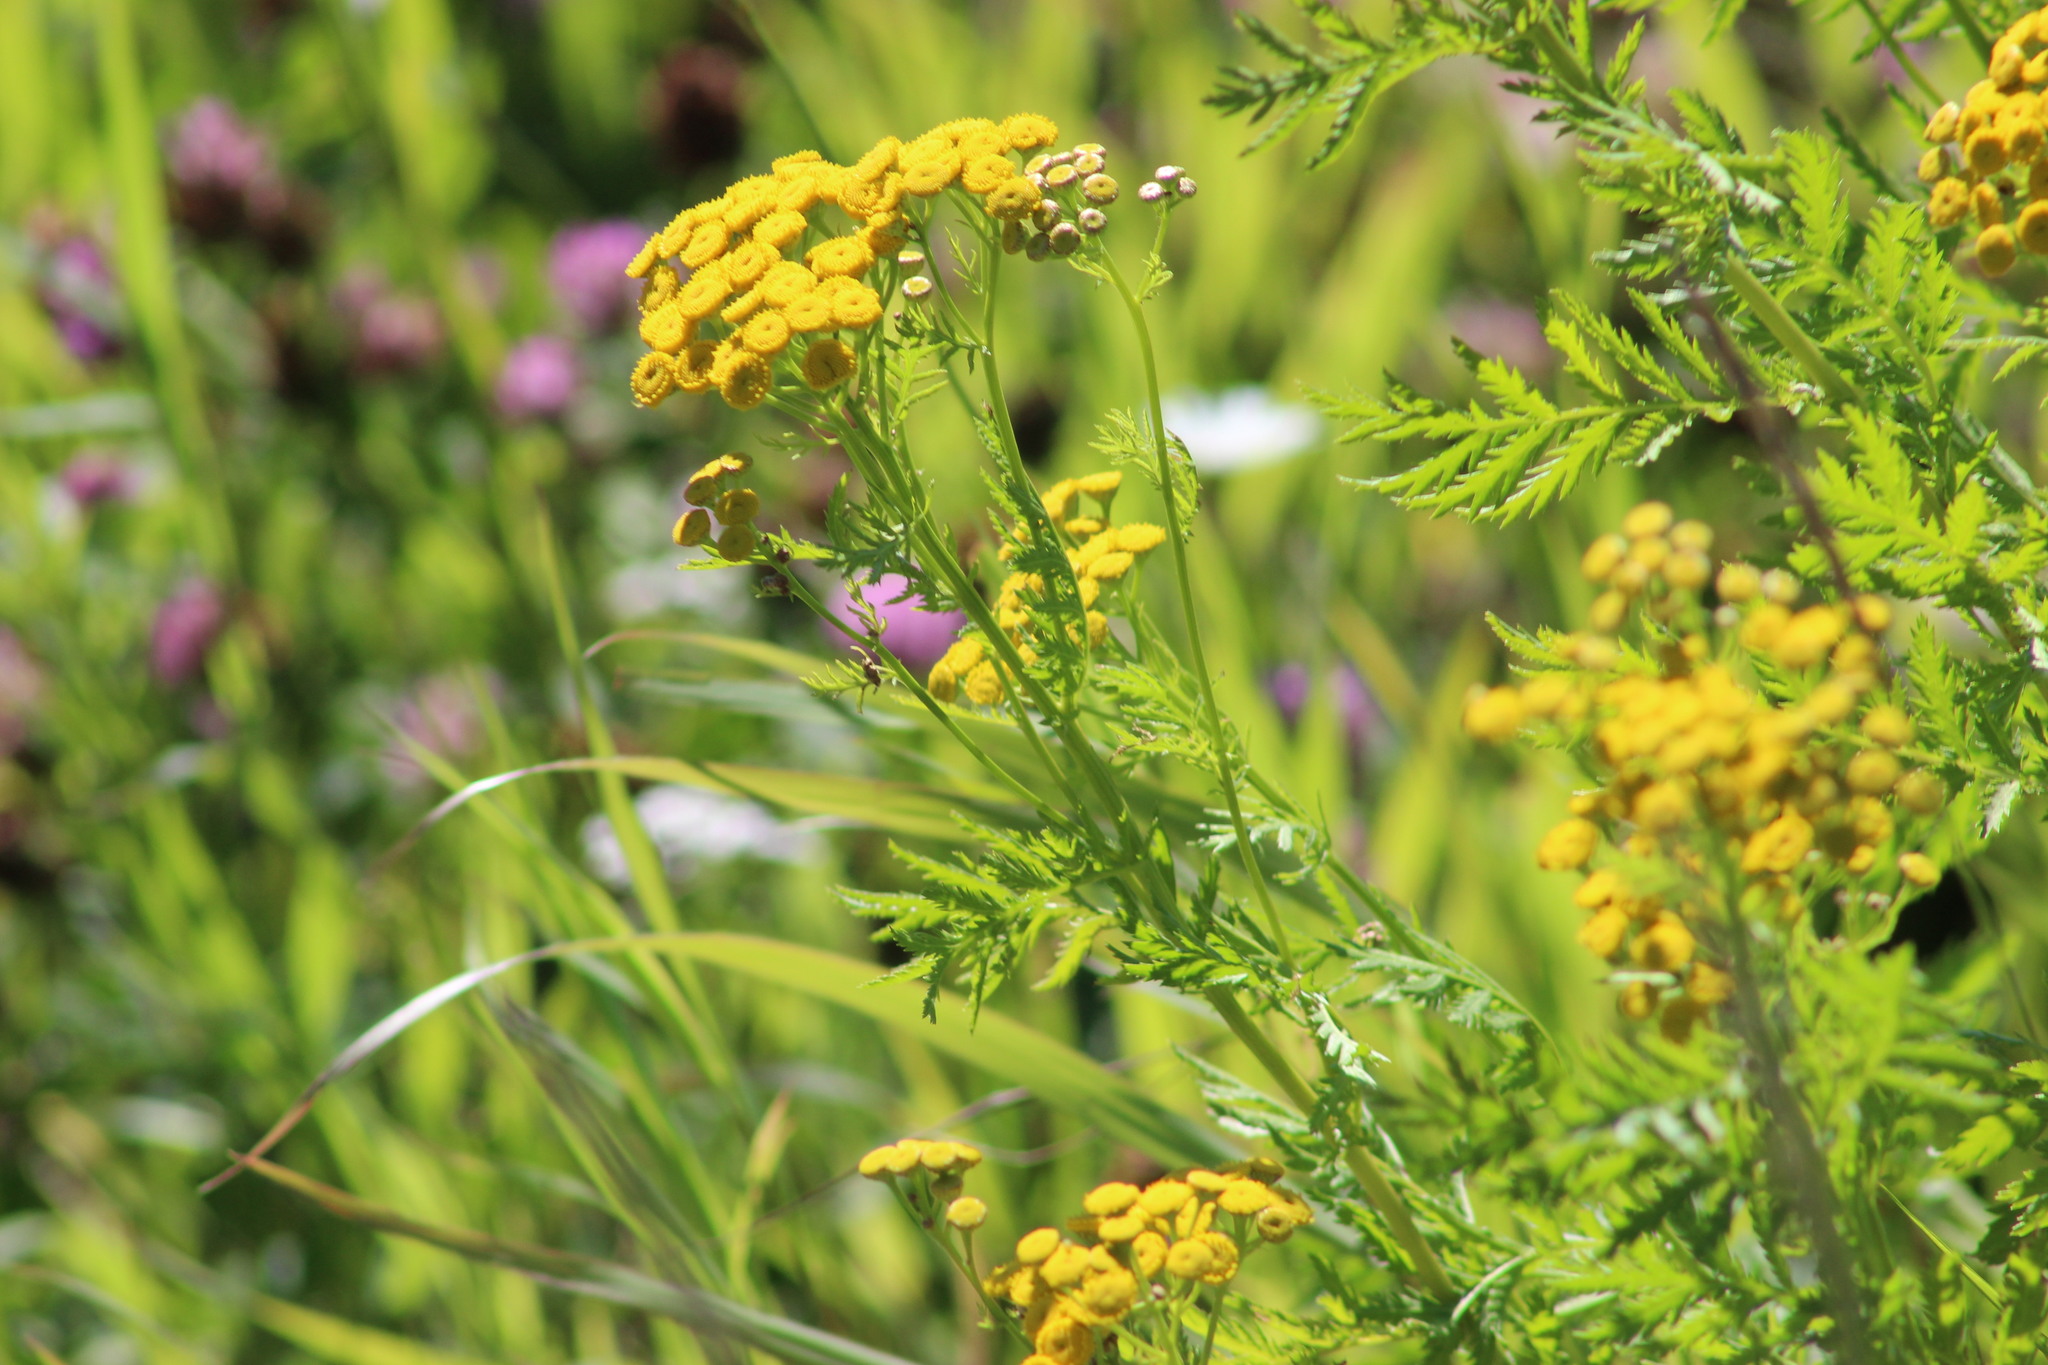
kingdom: Plantae
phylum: Tracheophyta
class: Magnoliopsida
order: Asterales
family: Asteraceae
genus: Tanacetum
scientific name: Tanacetum vulgare
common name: Common tansy
